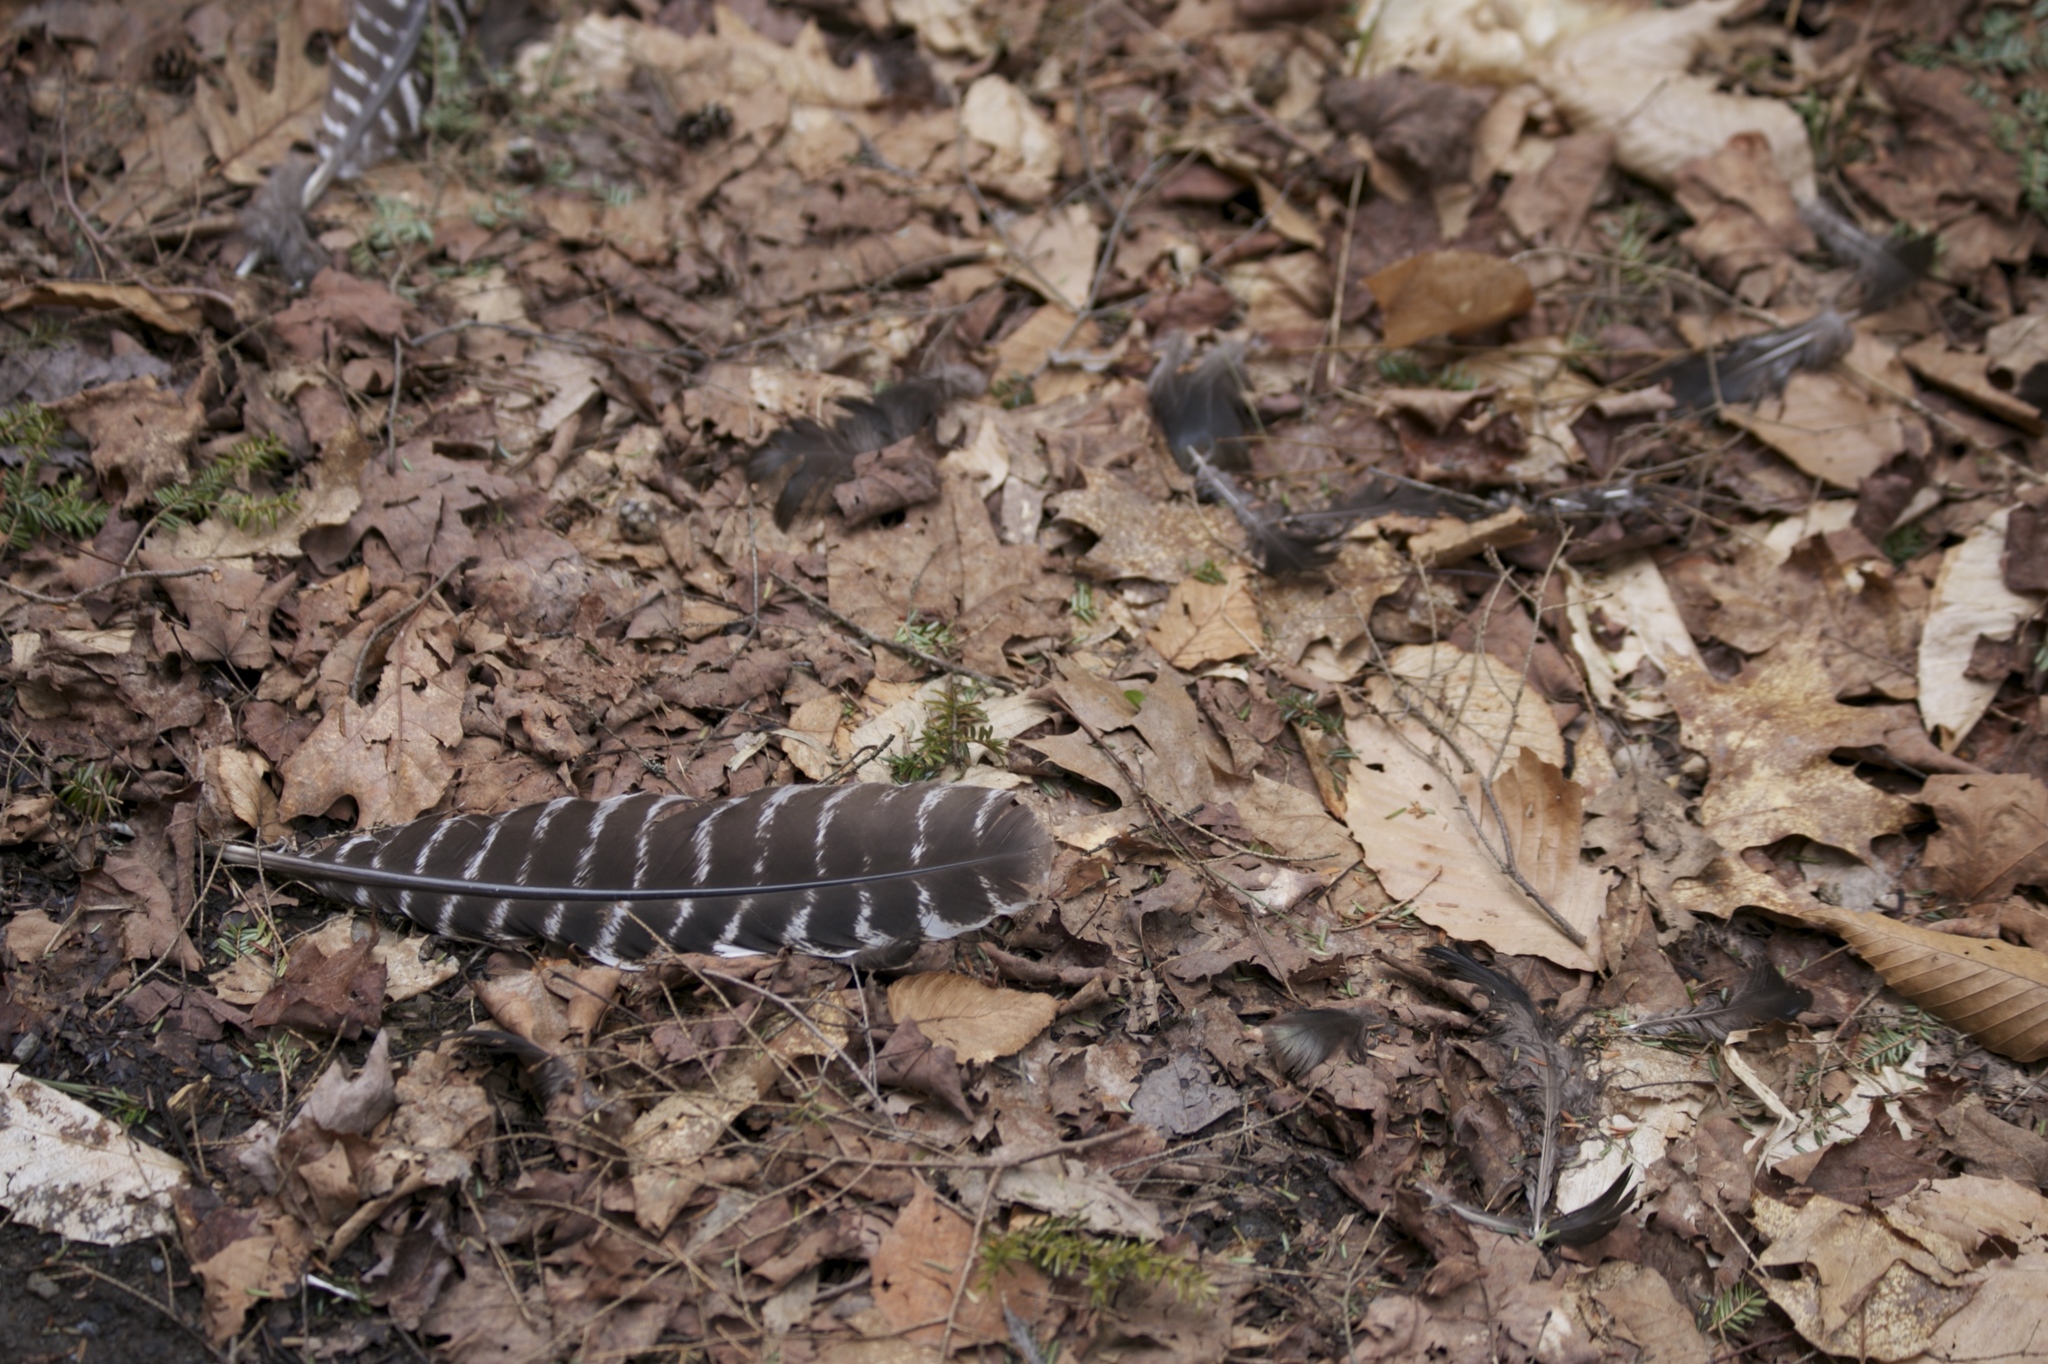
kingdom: Animalia
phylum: Chordata
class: Aves
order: Galliformes
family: Phasianidae
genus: Meleagris
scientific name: Meleagris gallopavo
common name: Wild turkey
